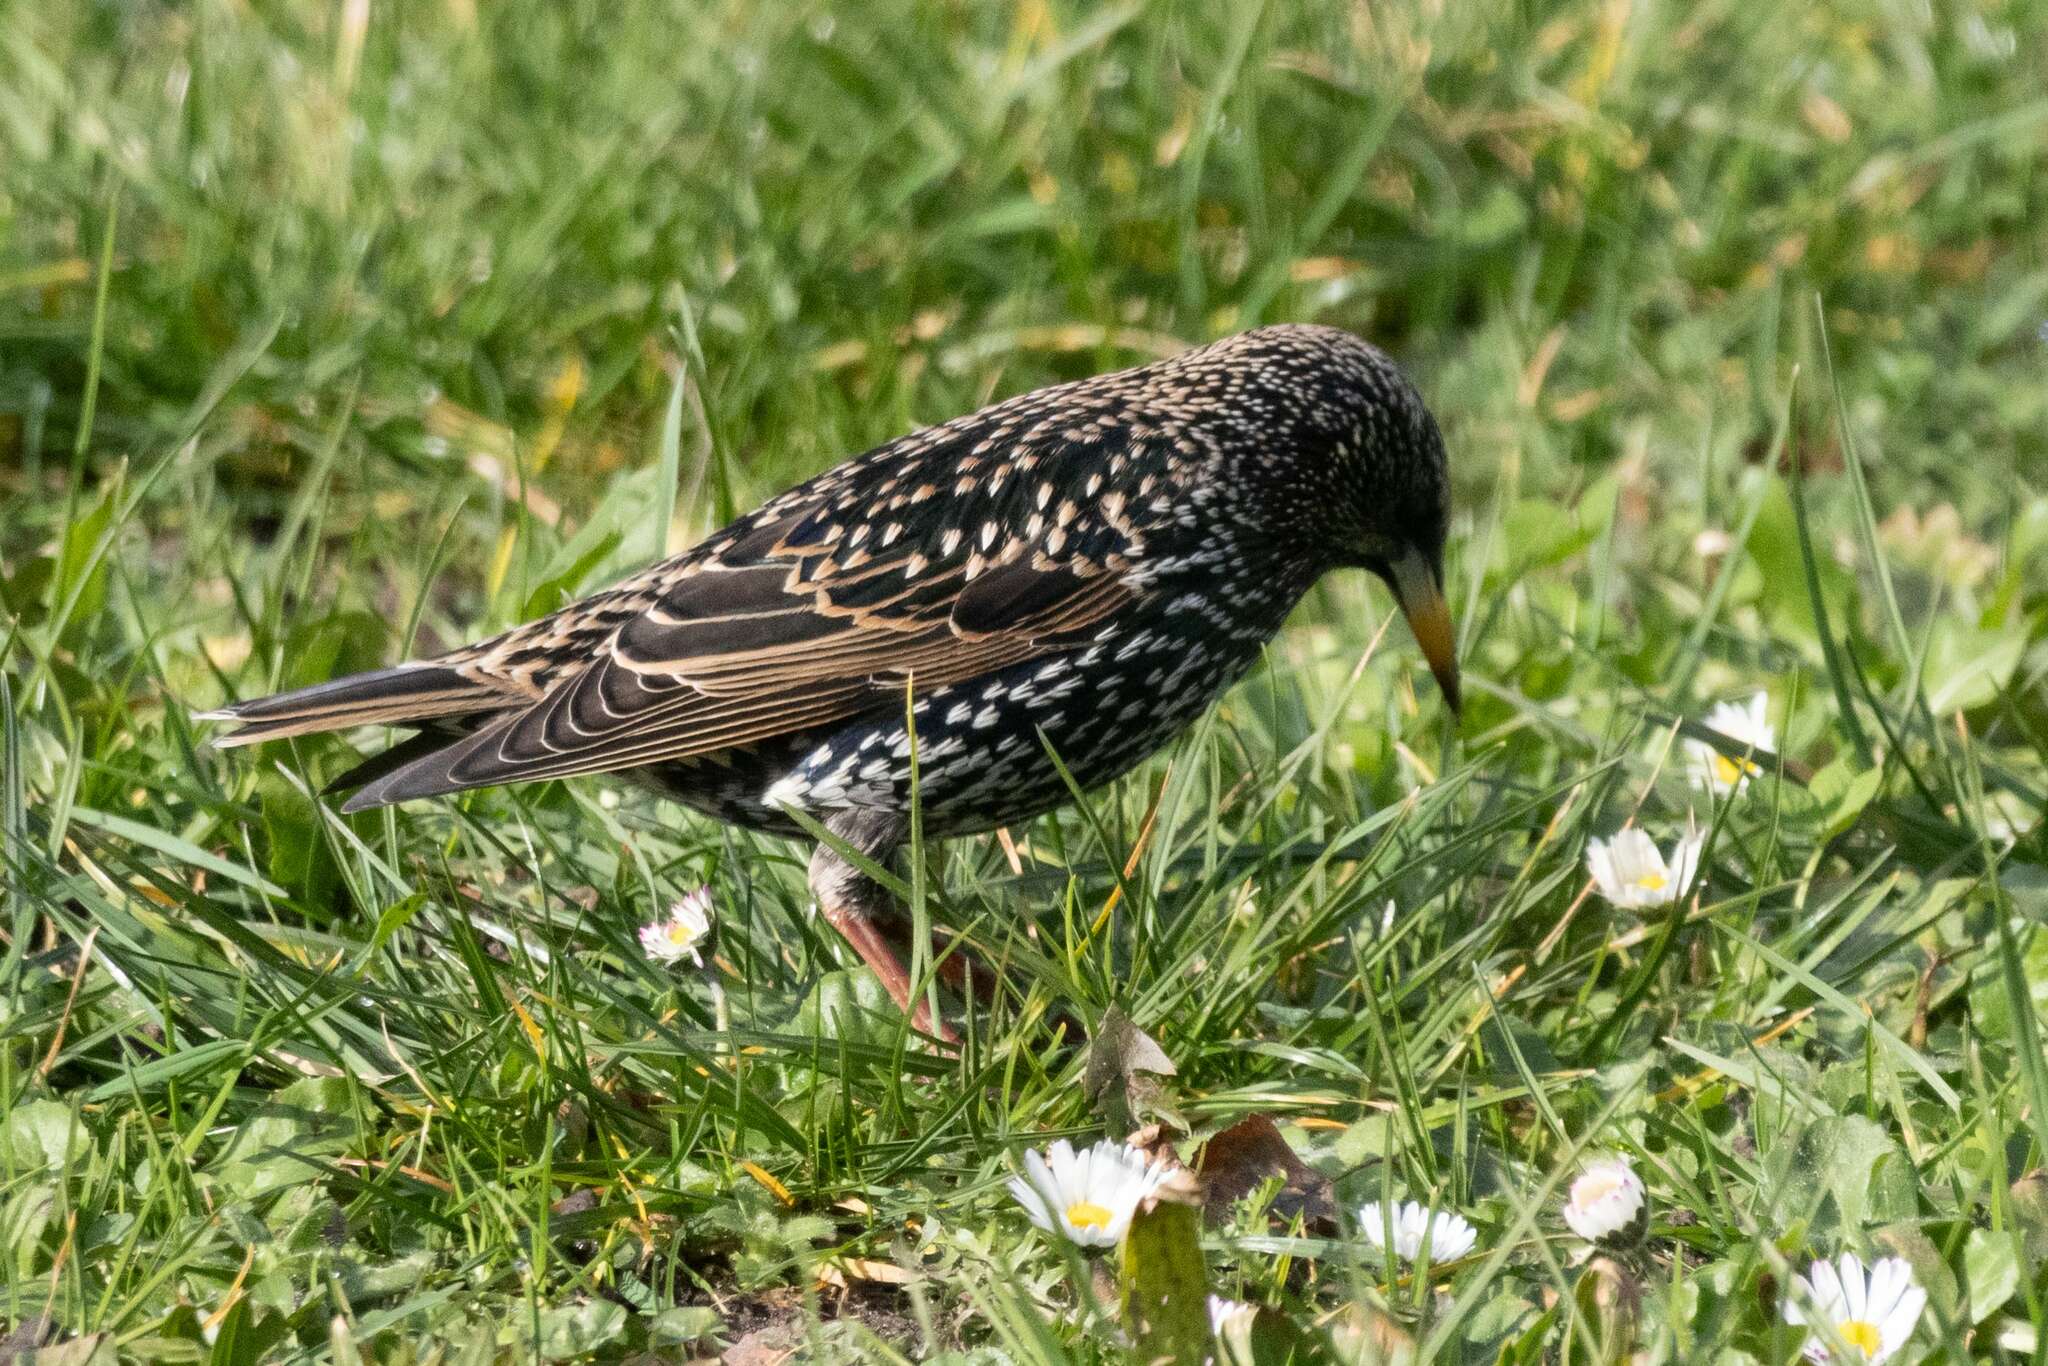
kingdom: Animalia
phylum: Chordata
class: Aves
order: Passeriformes
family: Sturnidae
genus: Sturnus
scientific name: Sturnus vulgaris
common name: Common starling
